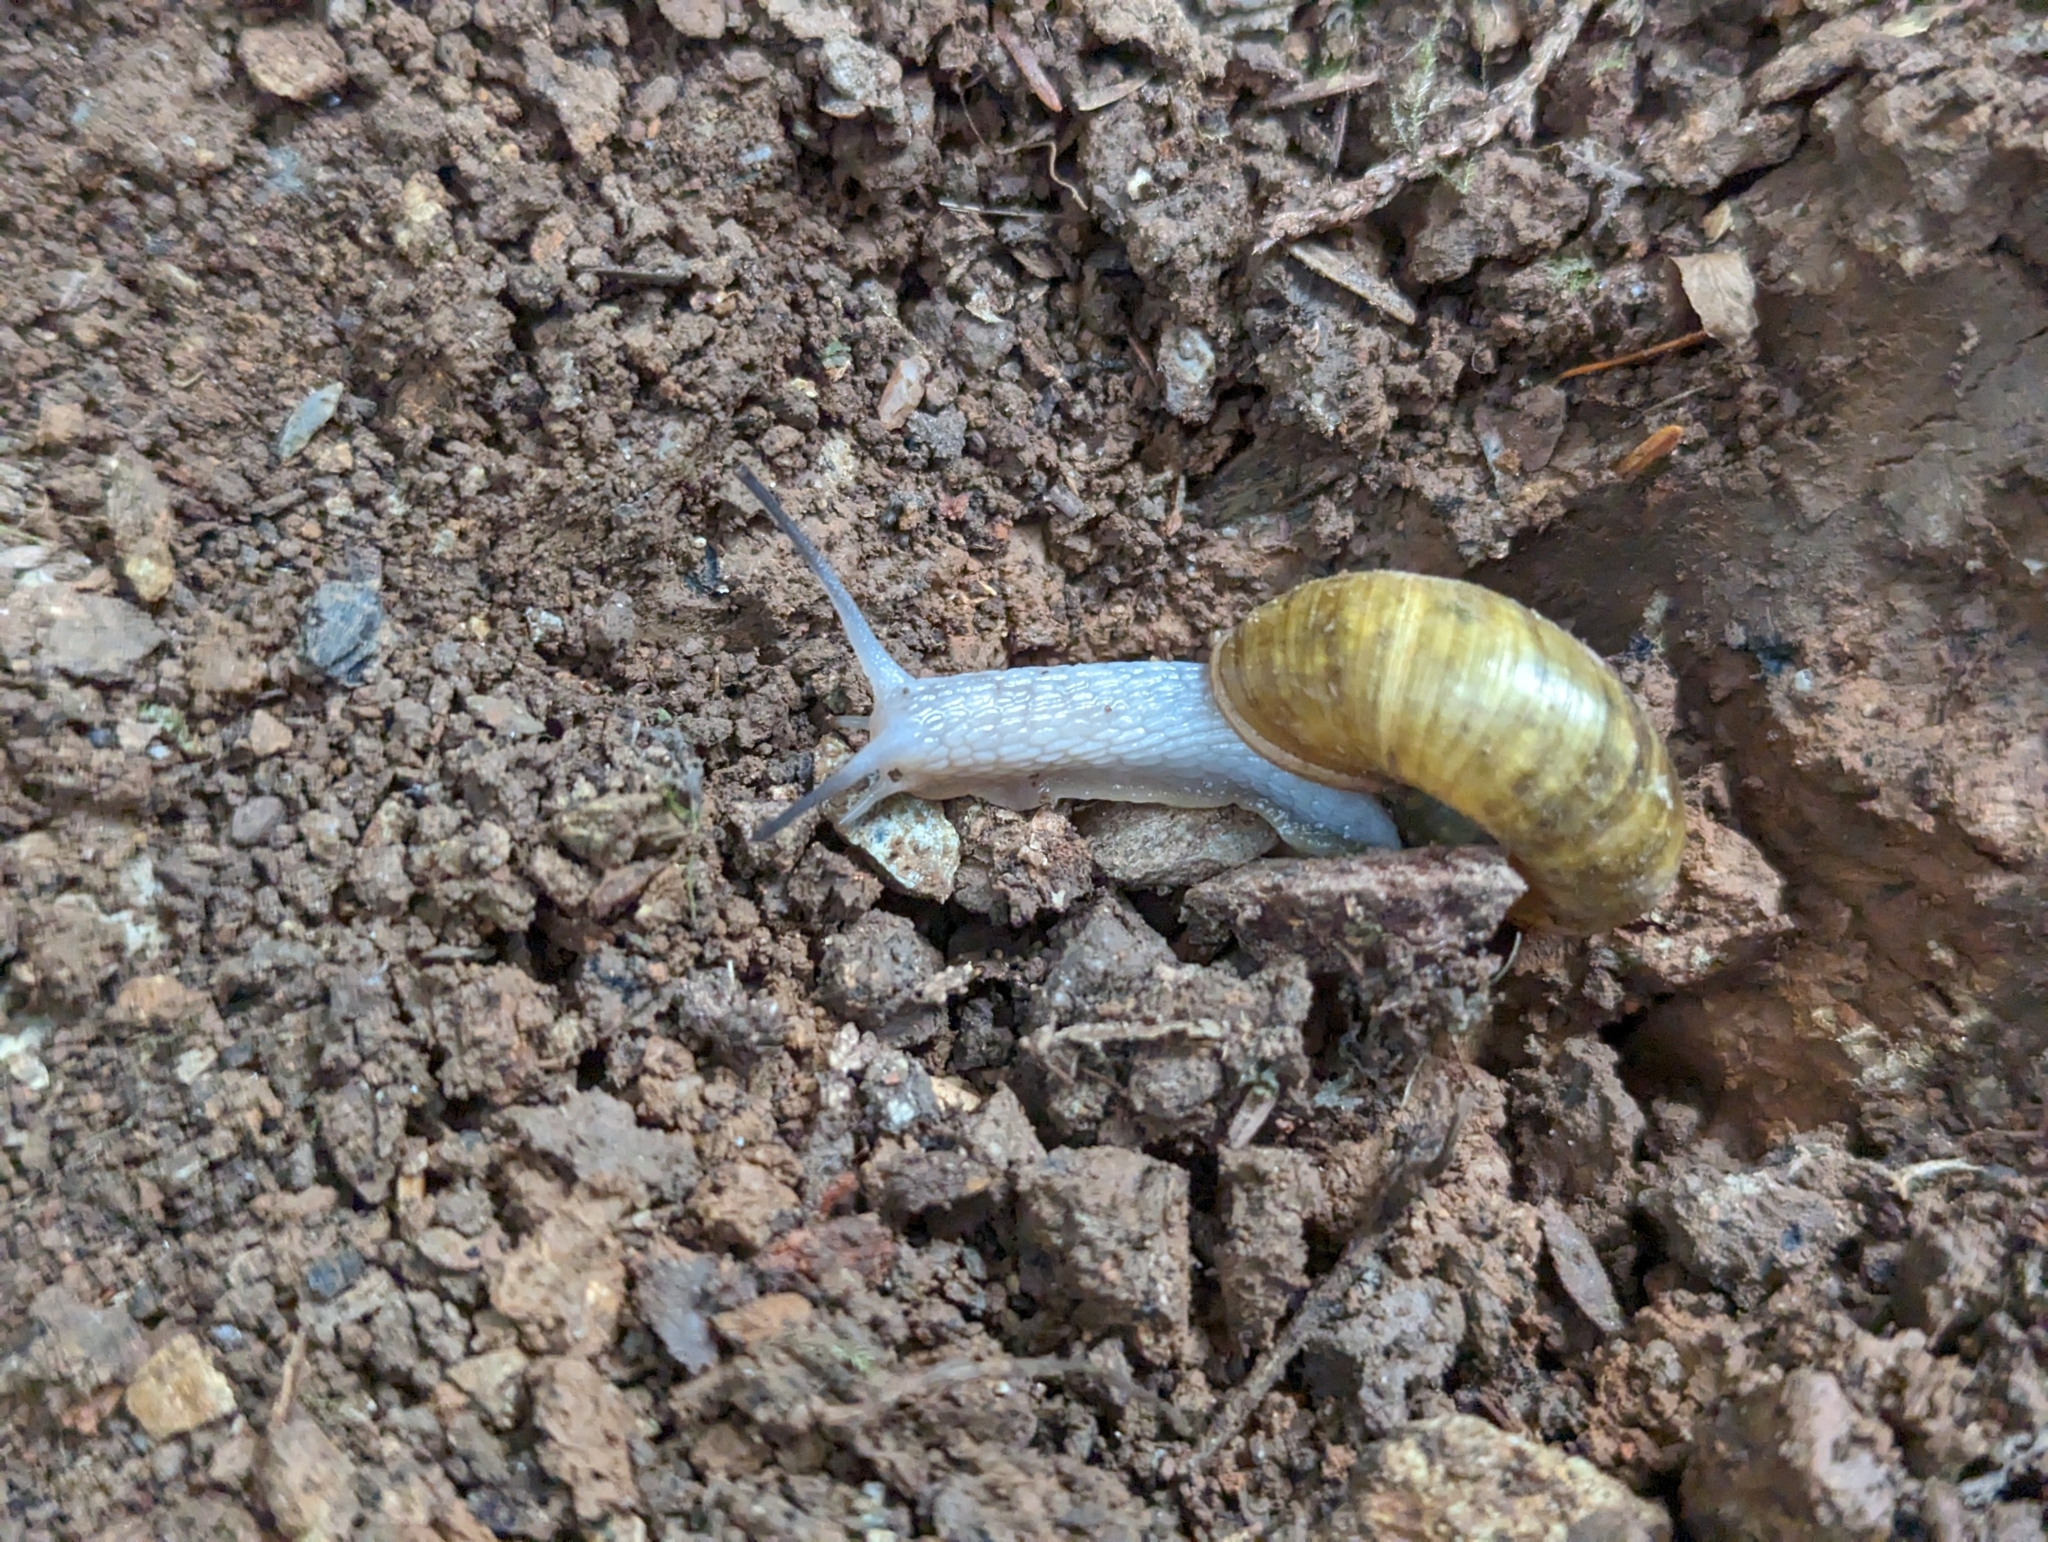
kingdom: Animalia
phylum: Mollusca
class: Gastropoda
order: Stylommatophora
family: Haplotrematidae
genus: Haplotrema
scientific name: Haplotrema vancouverense
